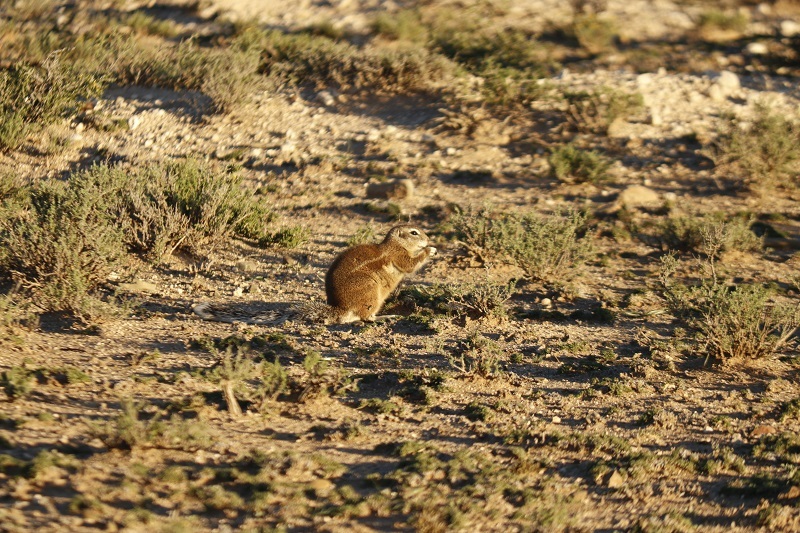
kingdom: Animalia
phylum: Chordata
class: Mammalia
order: Rodentia
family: Sciuridae
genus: Xerus
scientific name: Xerus inauris
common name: South african ground squirrel
